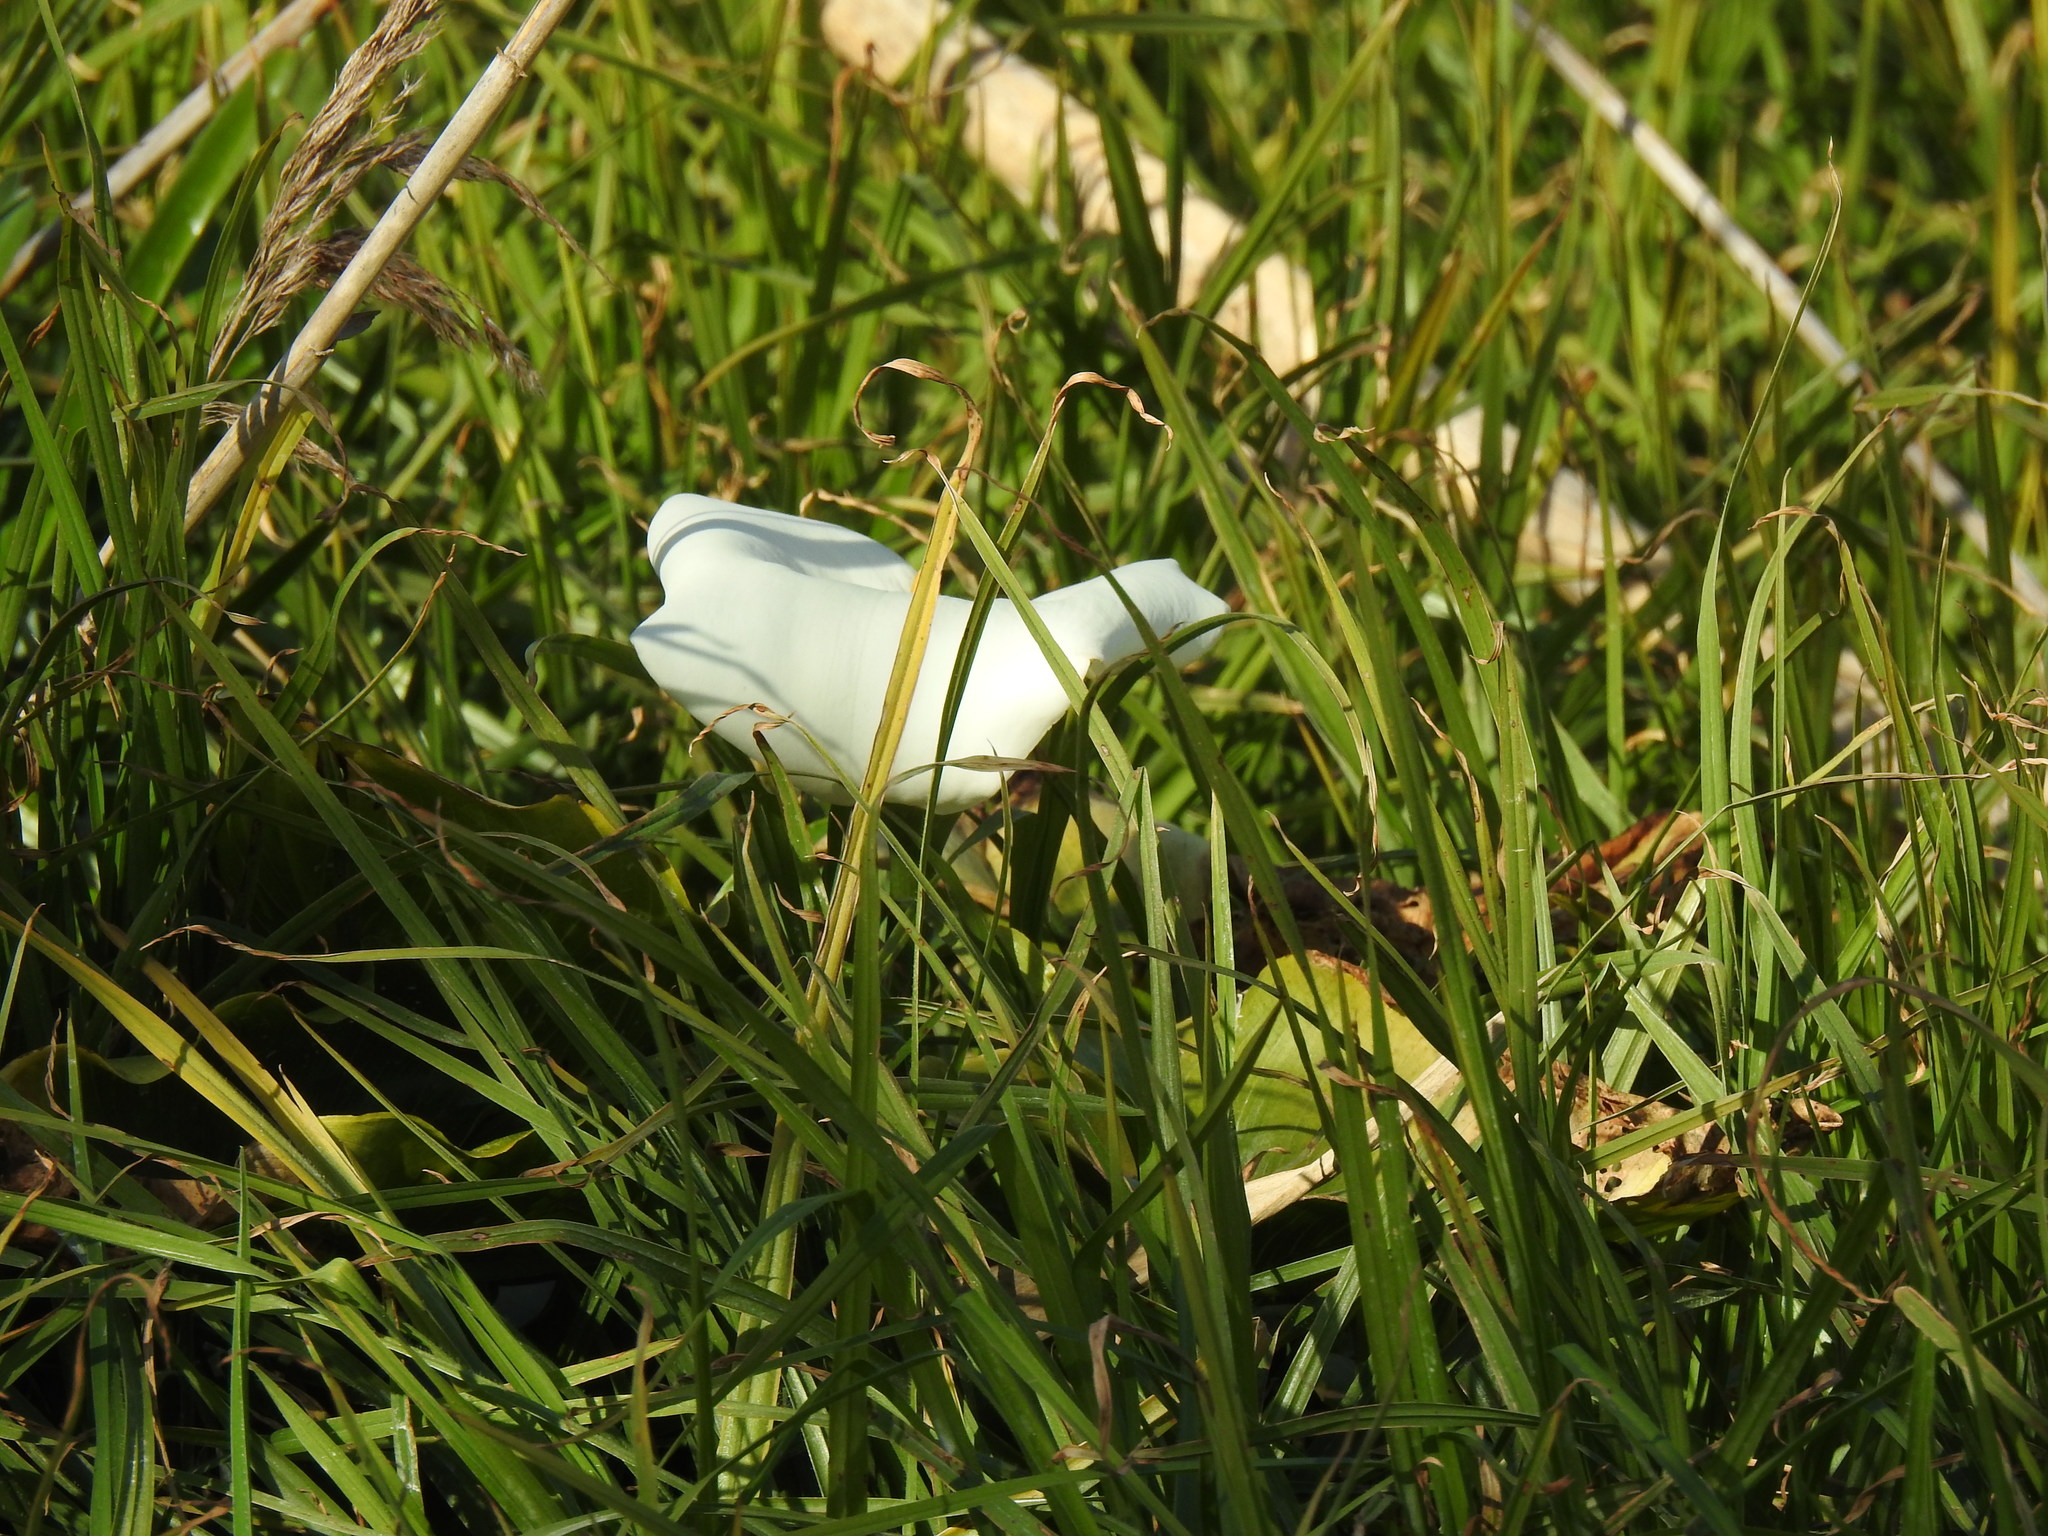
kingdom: Plantae
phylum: Tracheophyta
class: Liliopsida
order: Alismatales
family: Araceae
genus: Zantedeschia
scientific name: Zantedeschia aethiopica
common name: Altar-lily
